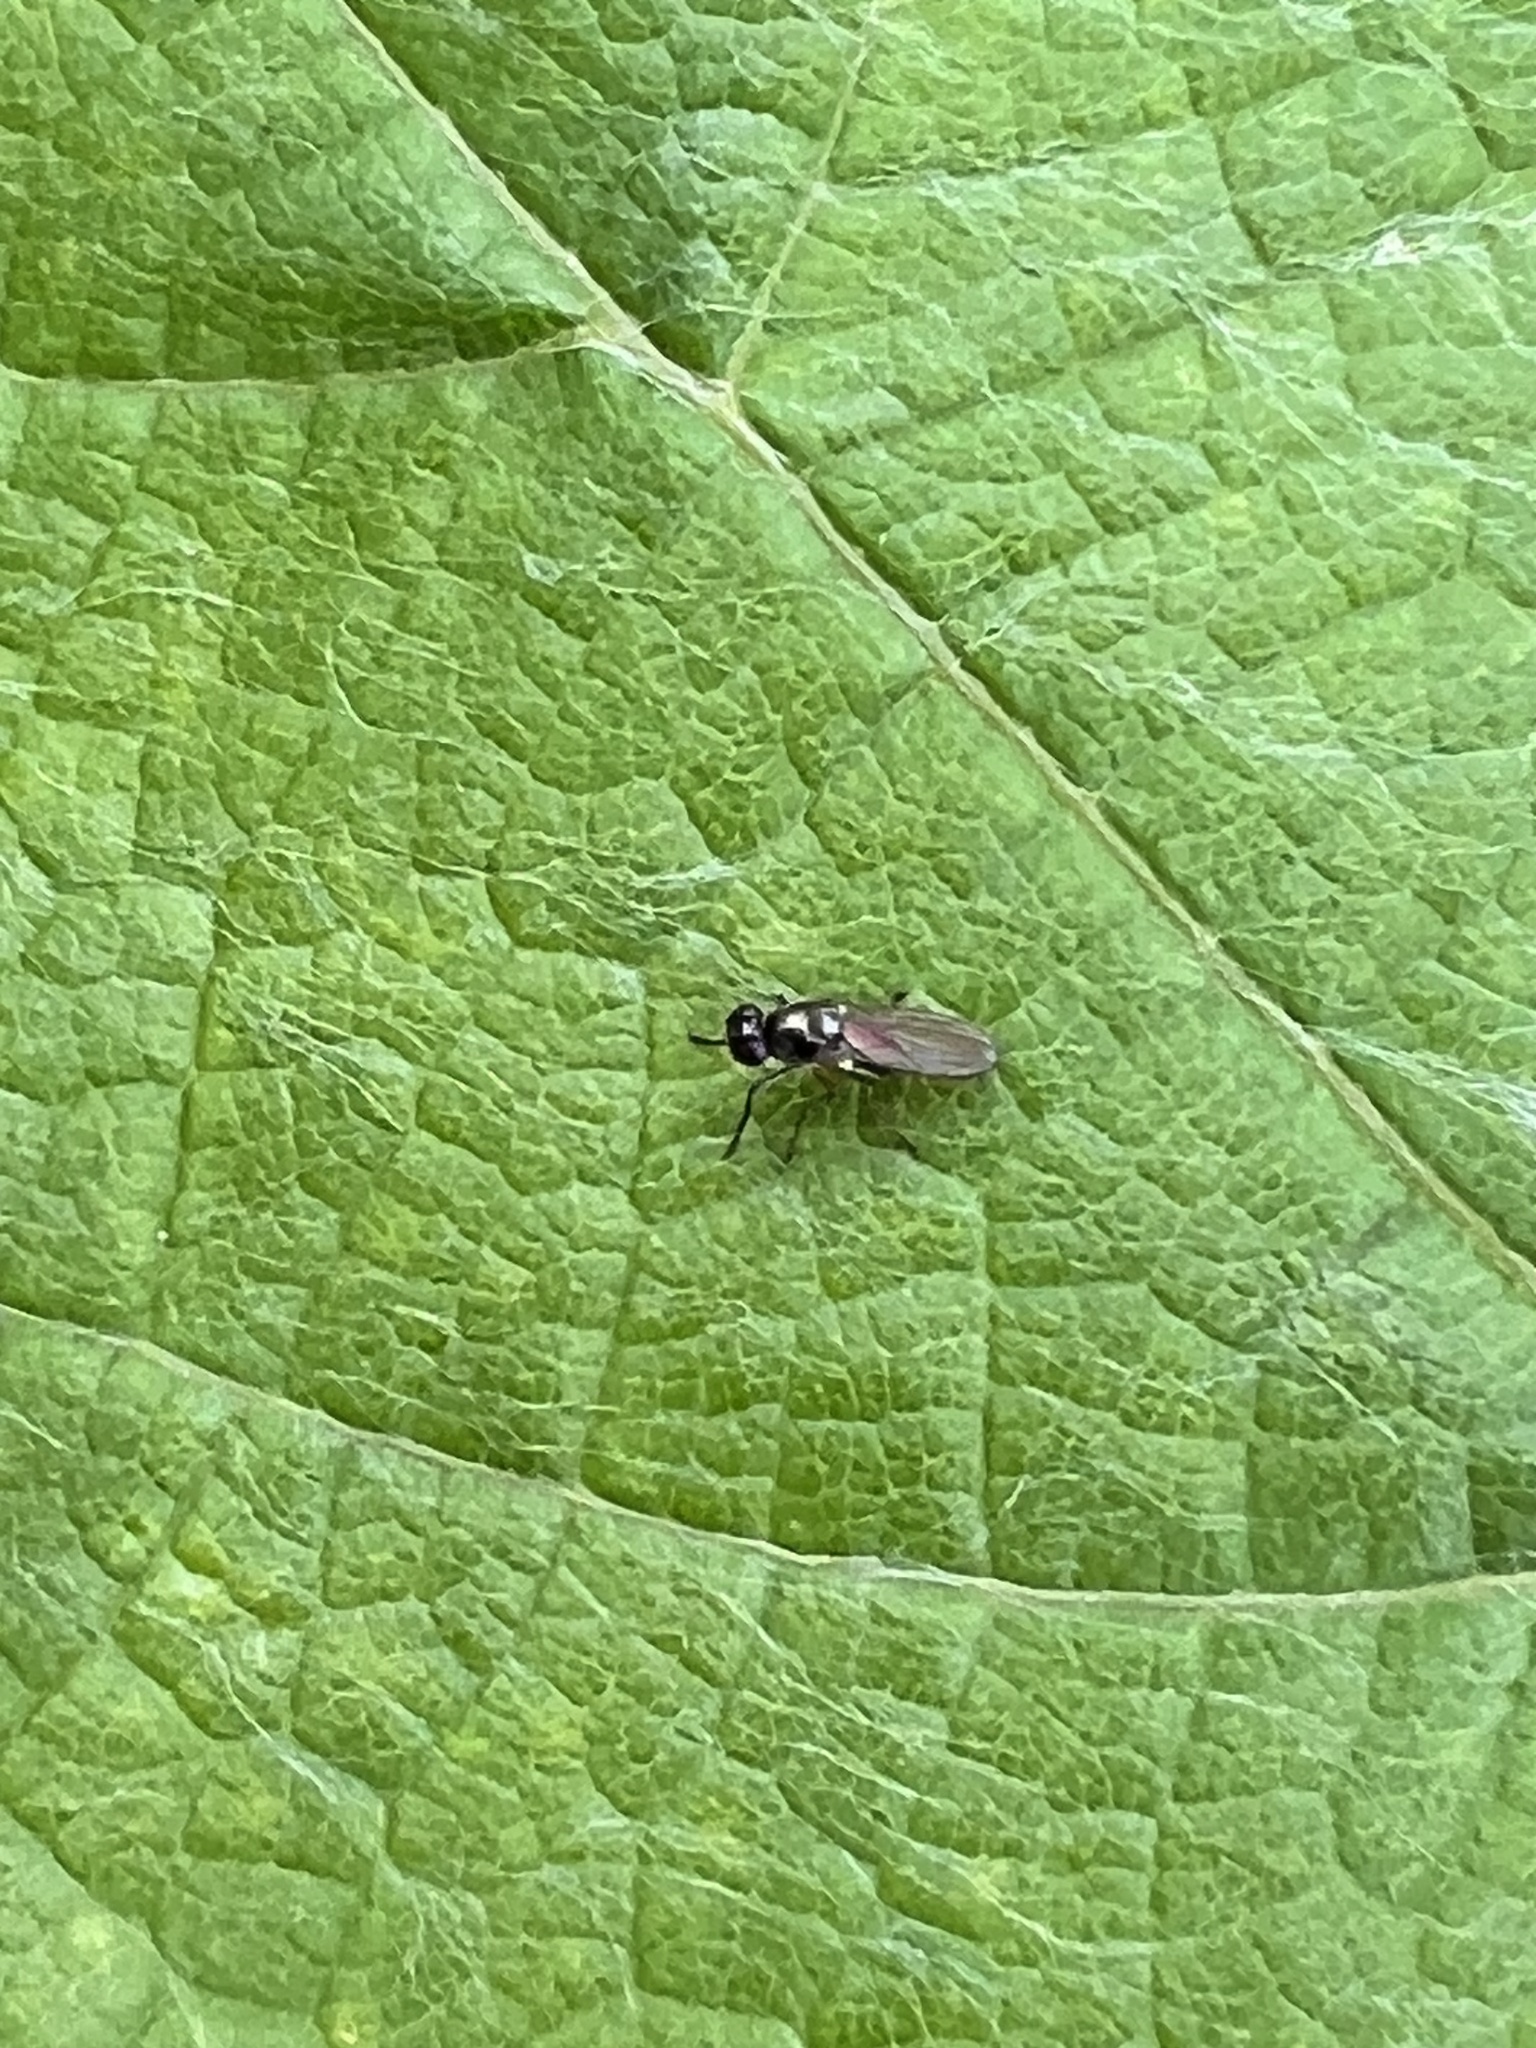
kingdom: Animalia
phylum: Arthropoda
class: Insecta
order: Diptera
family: Ephydridae
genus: Hydrellia
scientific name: Hydrellia tritici
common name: Shore fly
